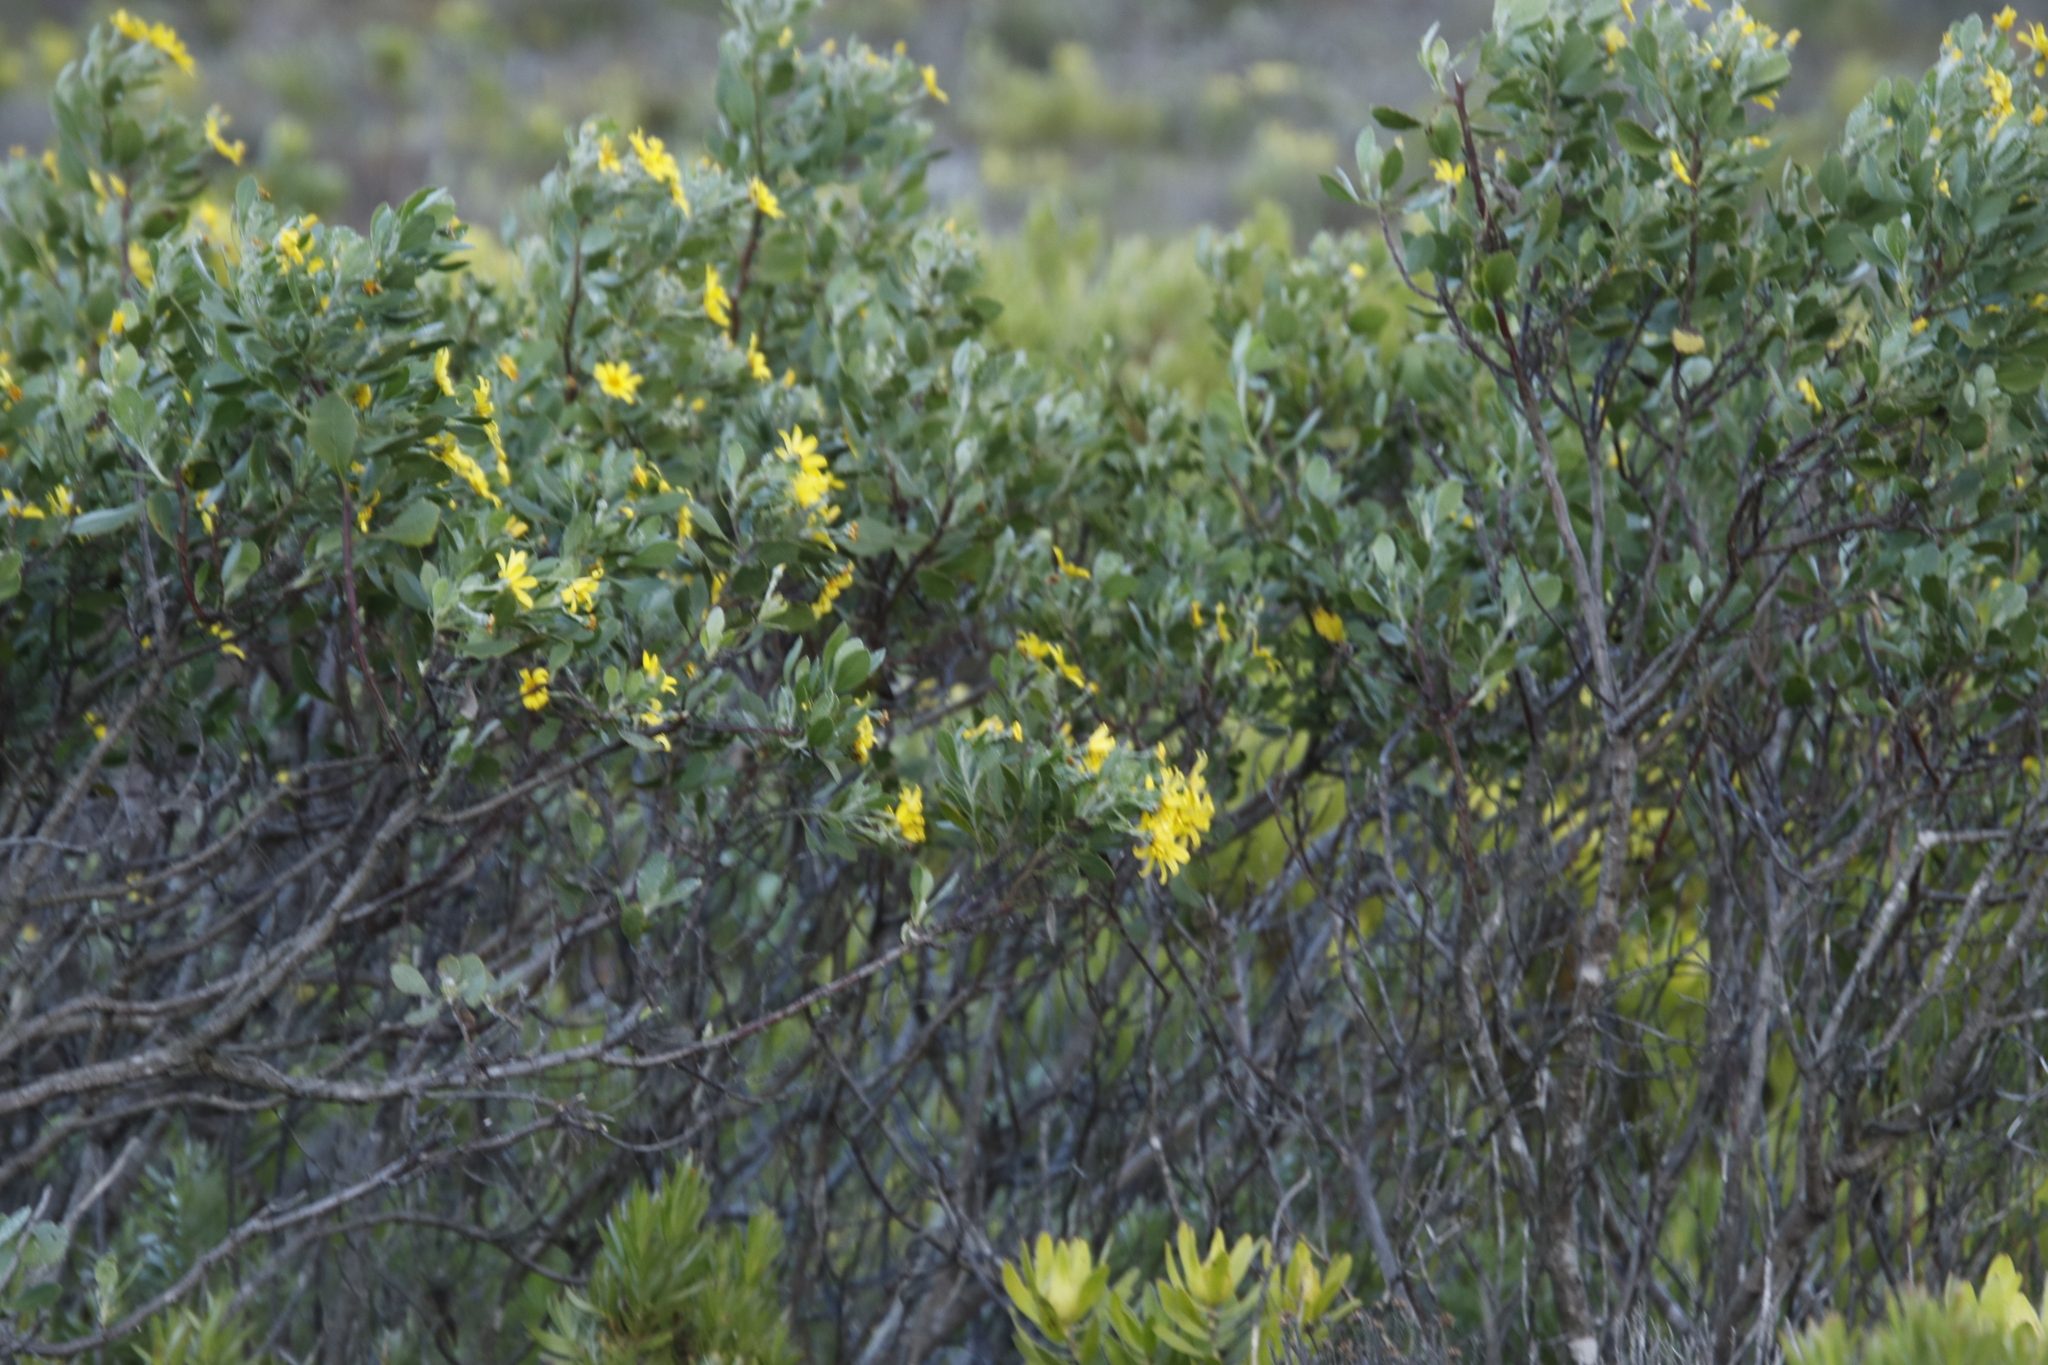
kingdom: Plantae
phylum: Tracheophyta
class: Magnoliopsida
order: Asterales
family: Asteraceae
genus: Osteospermum
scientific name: Osteospermum moniliferum
